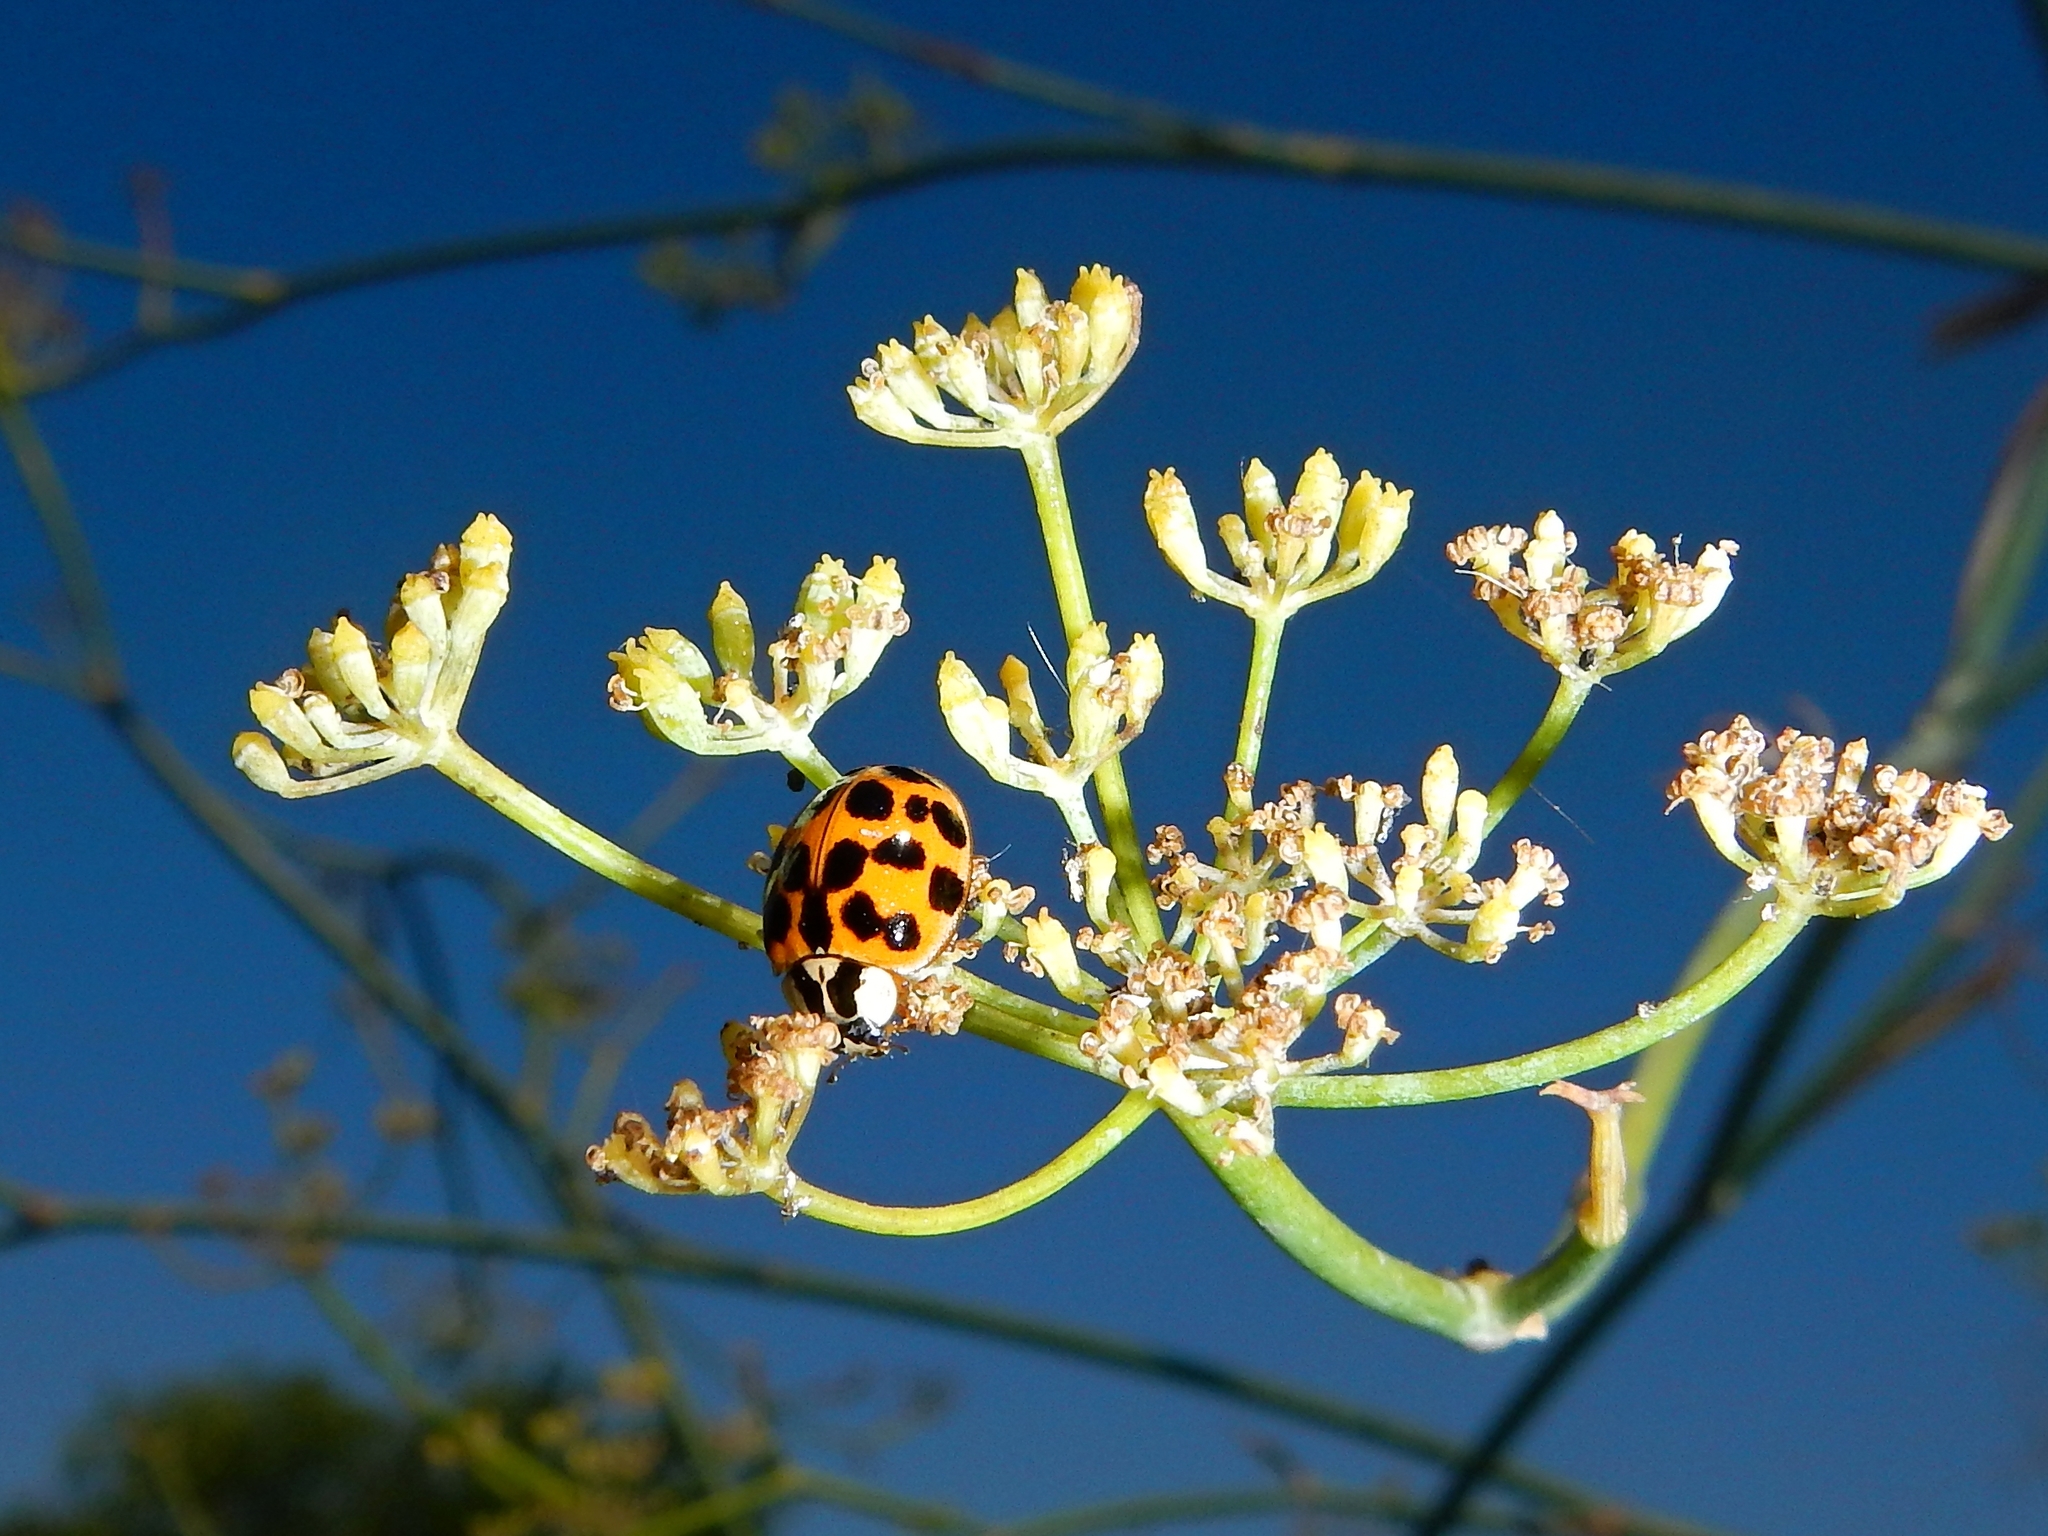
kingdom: Animalia
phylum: Arthropoda
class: Insecta
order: Coleoptera
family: Coccinellidae
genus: Harmonia
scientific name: Harmonia axyridis
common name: Harlequin ladybird
